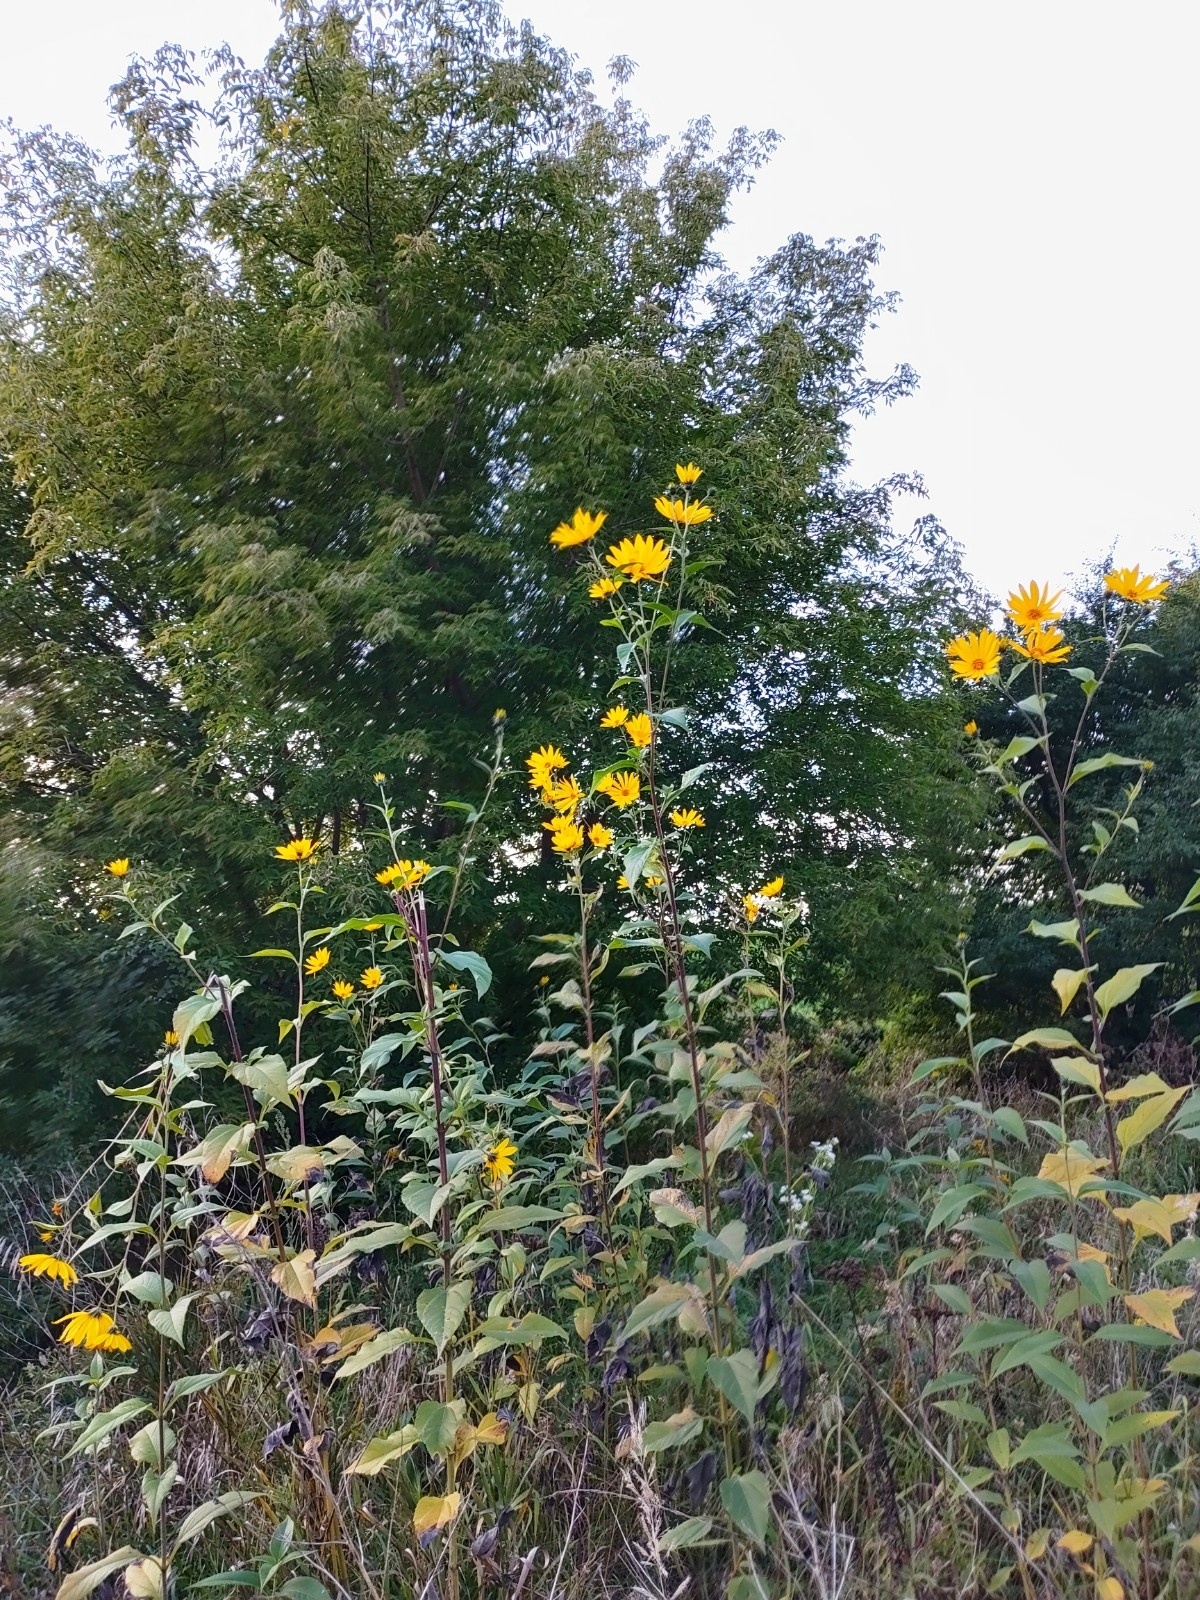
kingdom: Plantae
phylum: Tracheophyta
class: Magnoliopsida
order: Asterales
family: Asteraceae
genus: Helianthus
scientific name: Helianthus tuberosus
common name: Jerusalem artichoke
